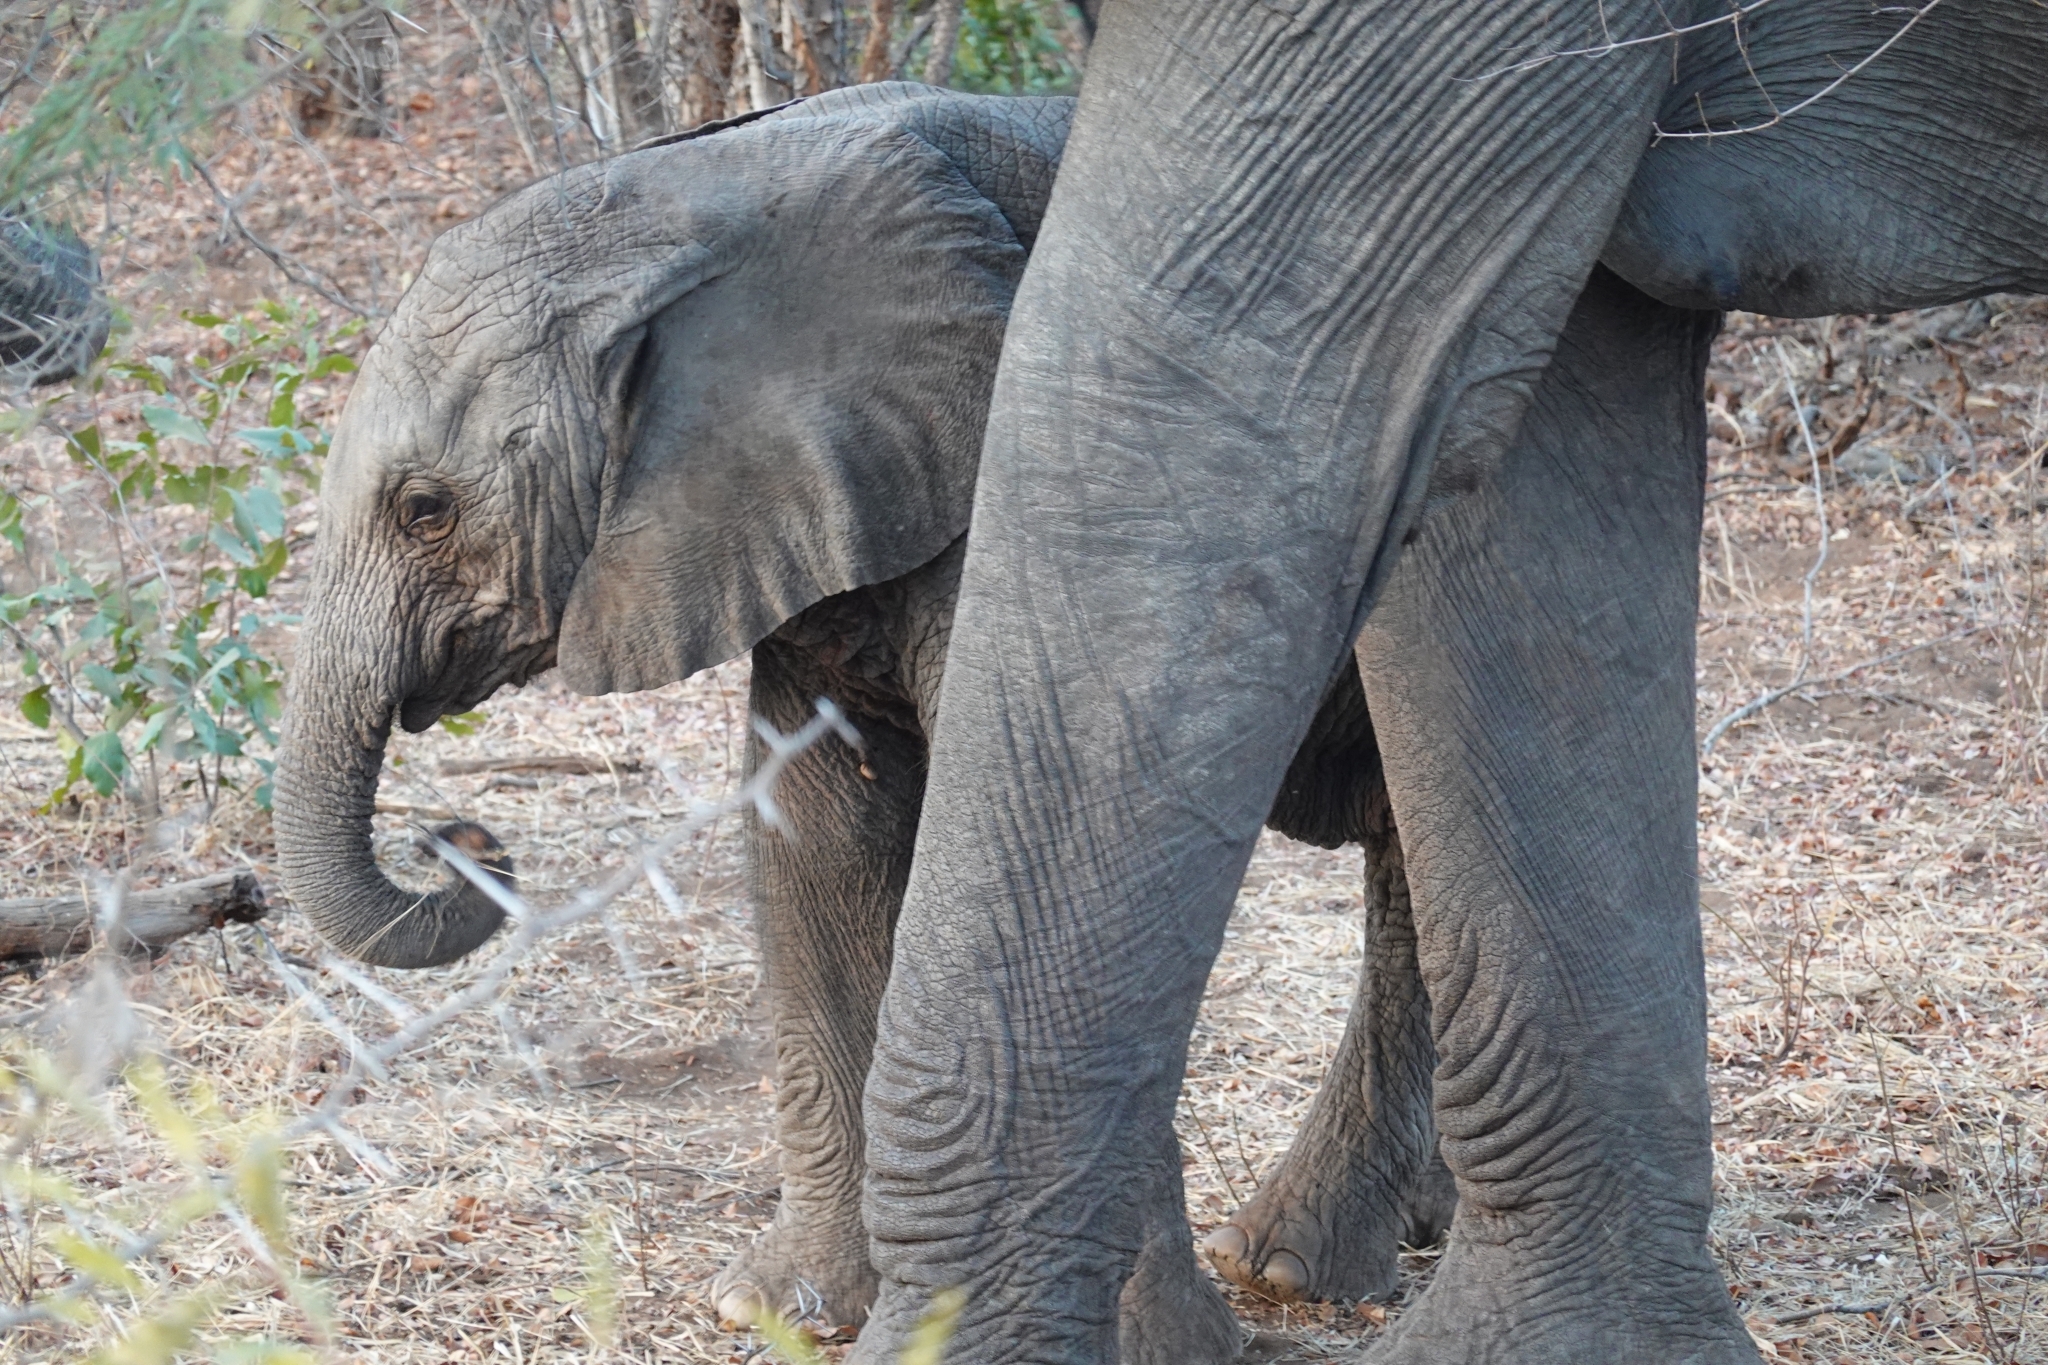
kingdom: Animalia
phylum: Chordata
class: Mammalia
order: Proboscidea
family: Elephantidae
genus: Loxodonta
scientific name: Loxodonta africana
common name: African elephant
